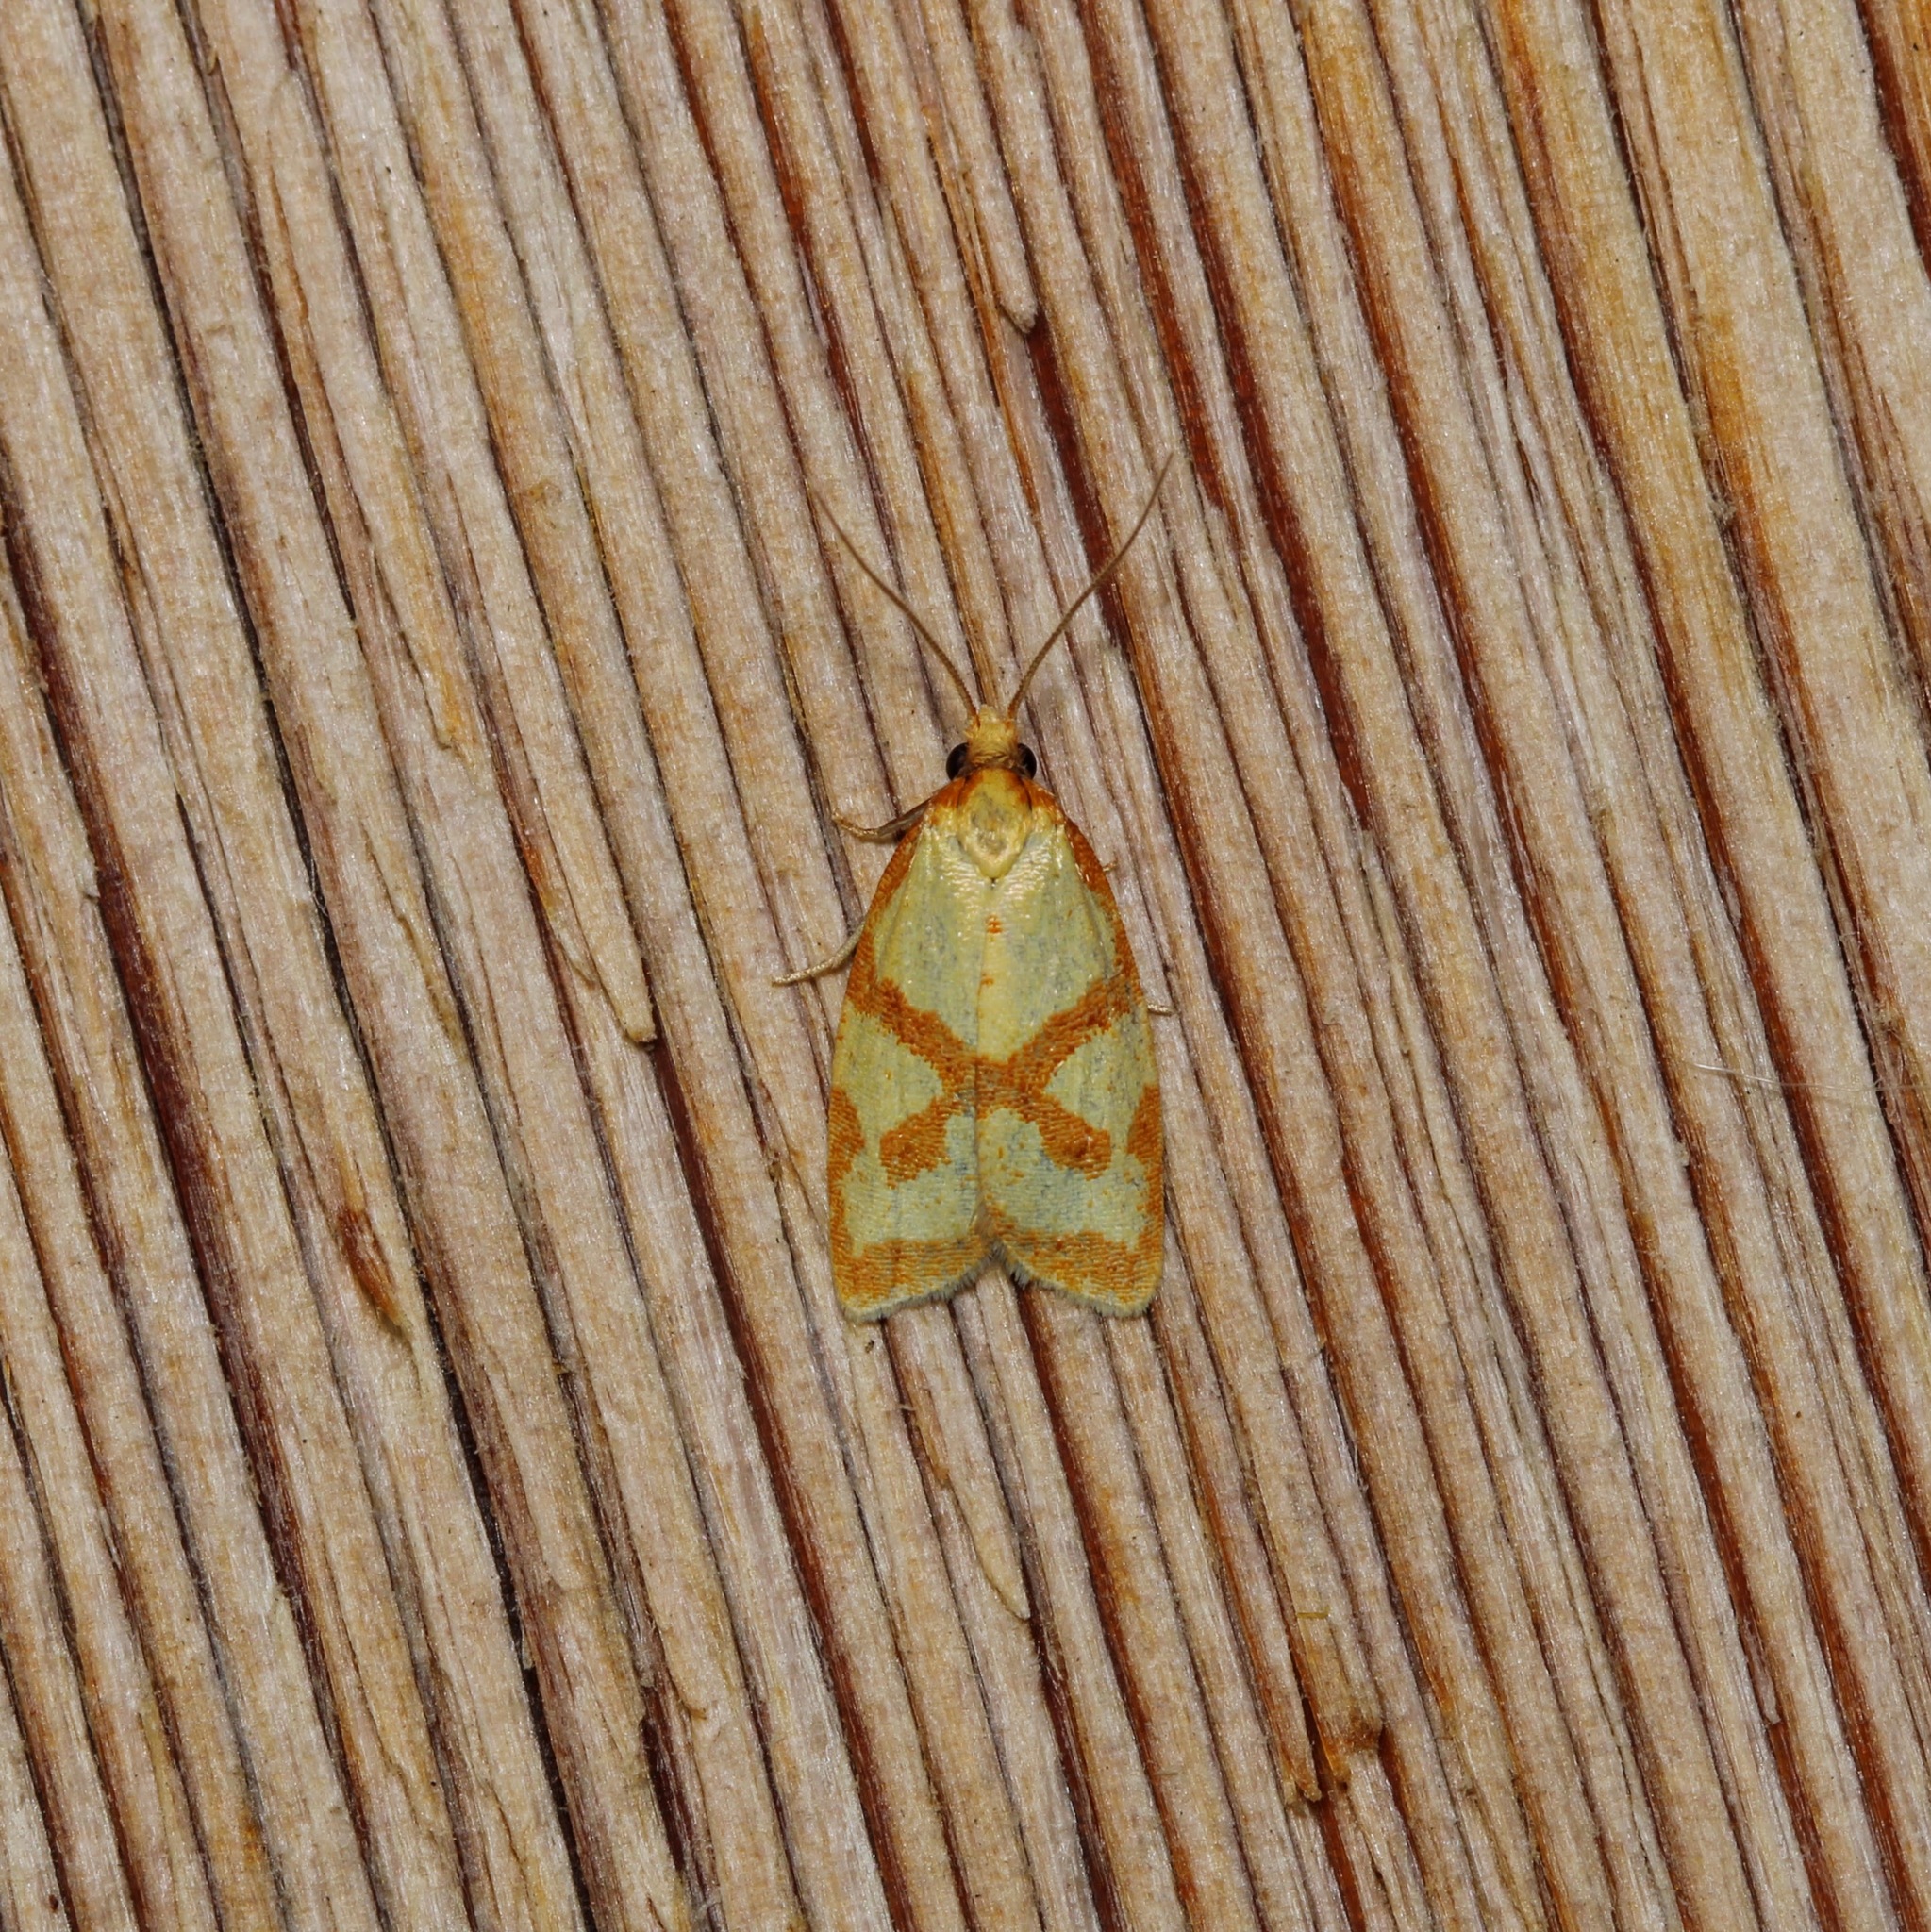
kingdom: Animalia
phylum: Arthropoda
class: Insecta
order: Lepidoptera
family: Tortricidae
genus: Sparganothis
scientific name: Sparganothis sulfureana
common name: Sparganothis fruitworm moth
